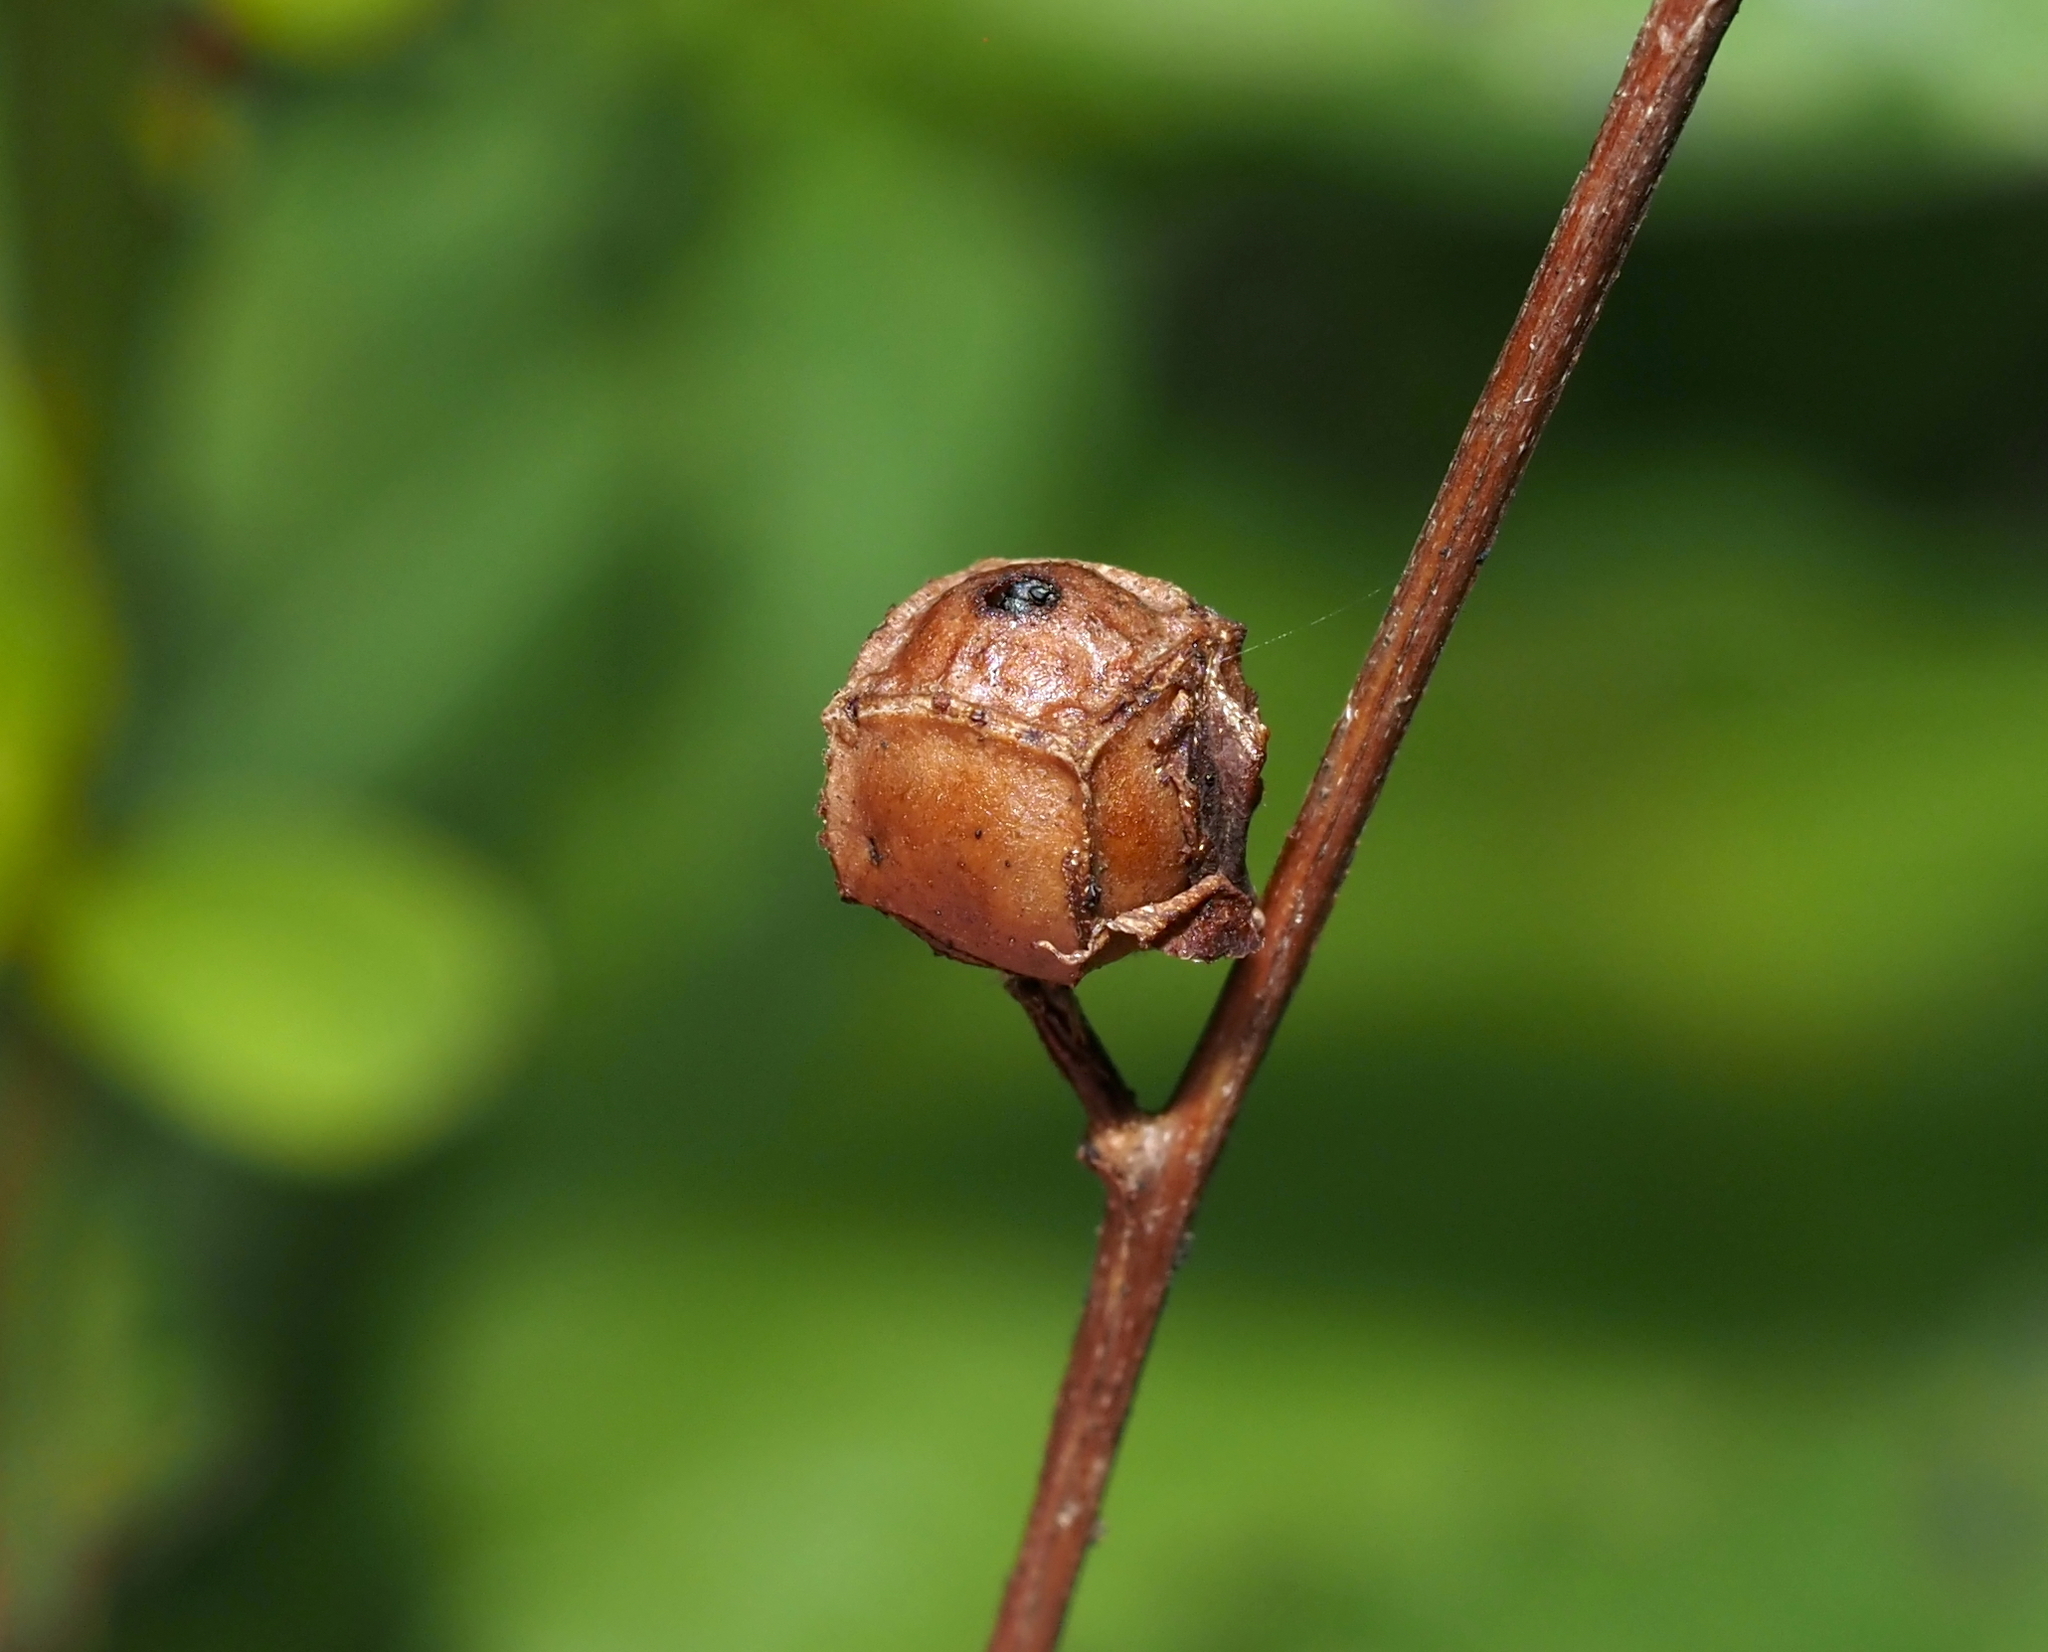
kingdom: Plantae
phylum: Tracheophyta
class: Magnoliopsida
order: Myrtales
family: Onagraceae
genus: Ludwigia
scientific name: Ludwigia alternifolia
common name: Rattlebox
